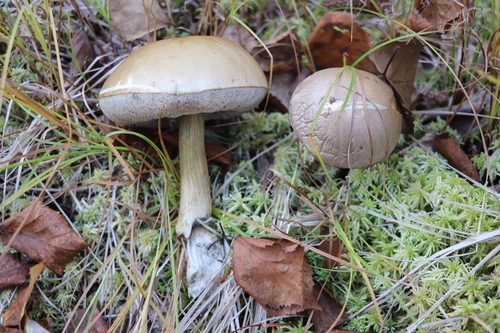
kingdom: Fungi
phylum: Basidiomycota
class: Agaricomycetes
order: Boletales
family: Boletaceae
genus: Leccinum
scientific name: Leccinum holopus
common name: Ghost bolete
